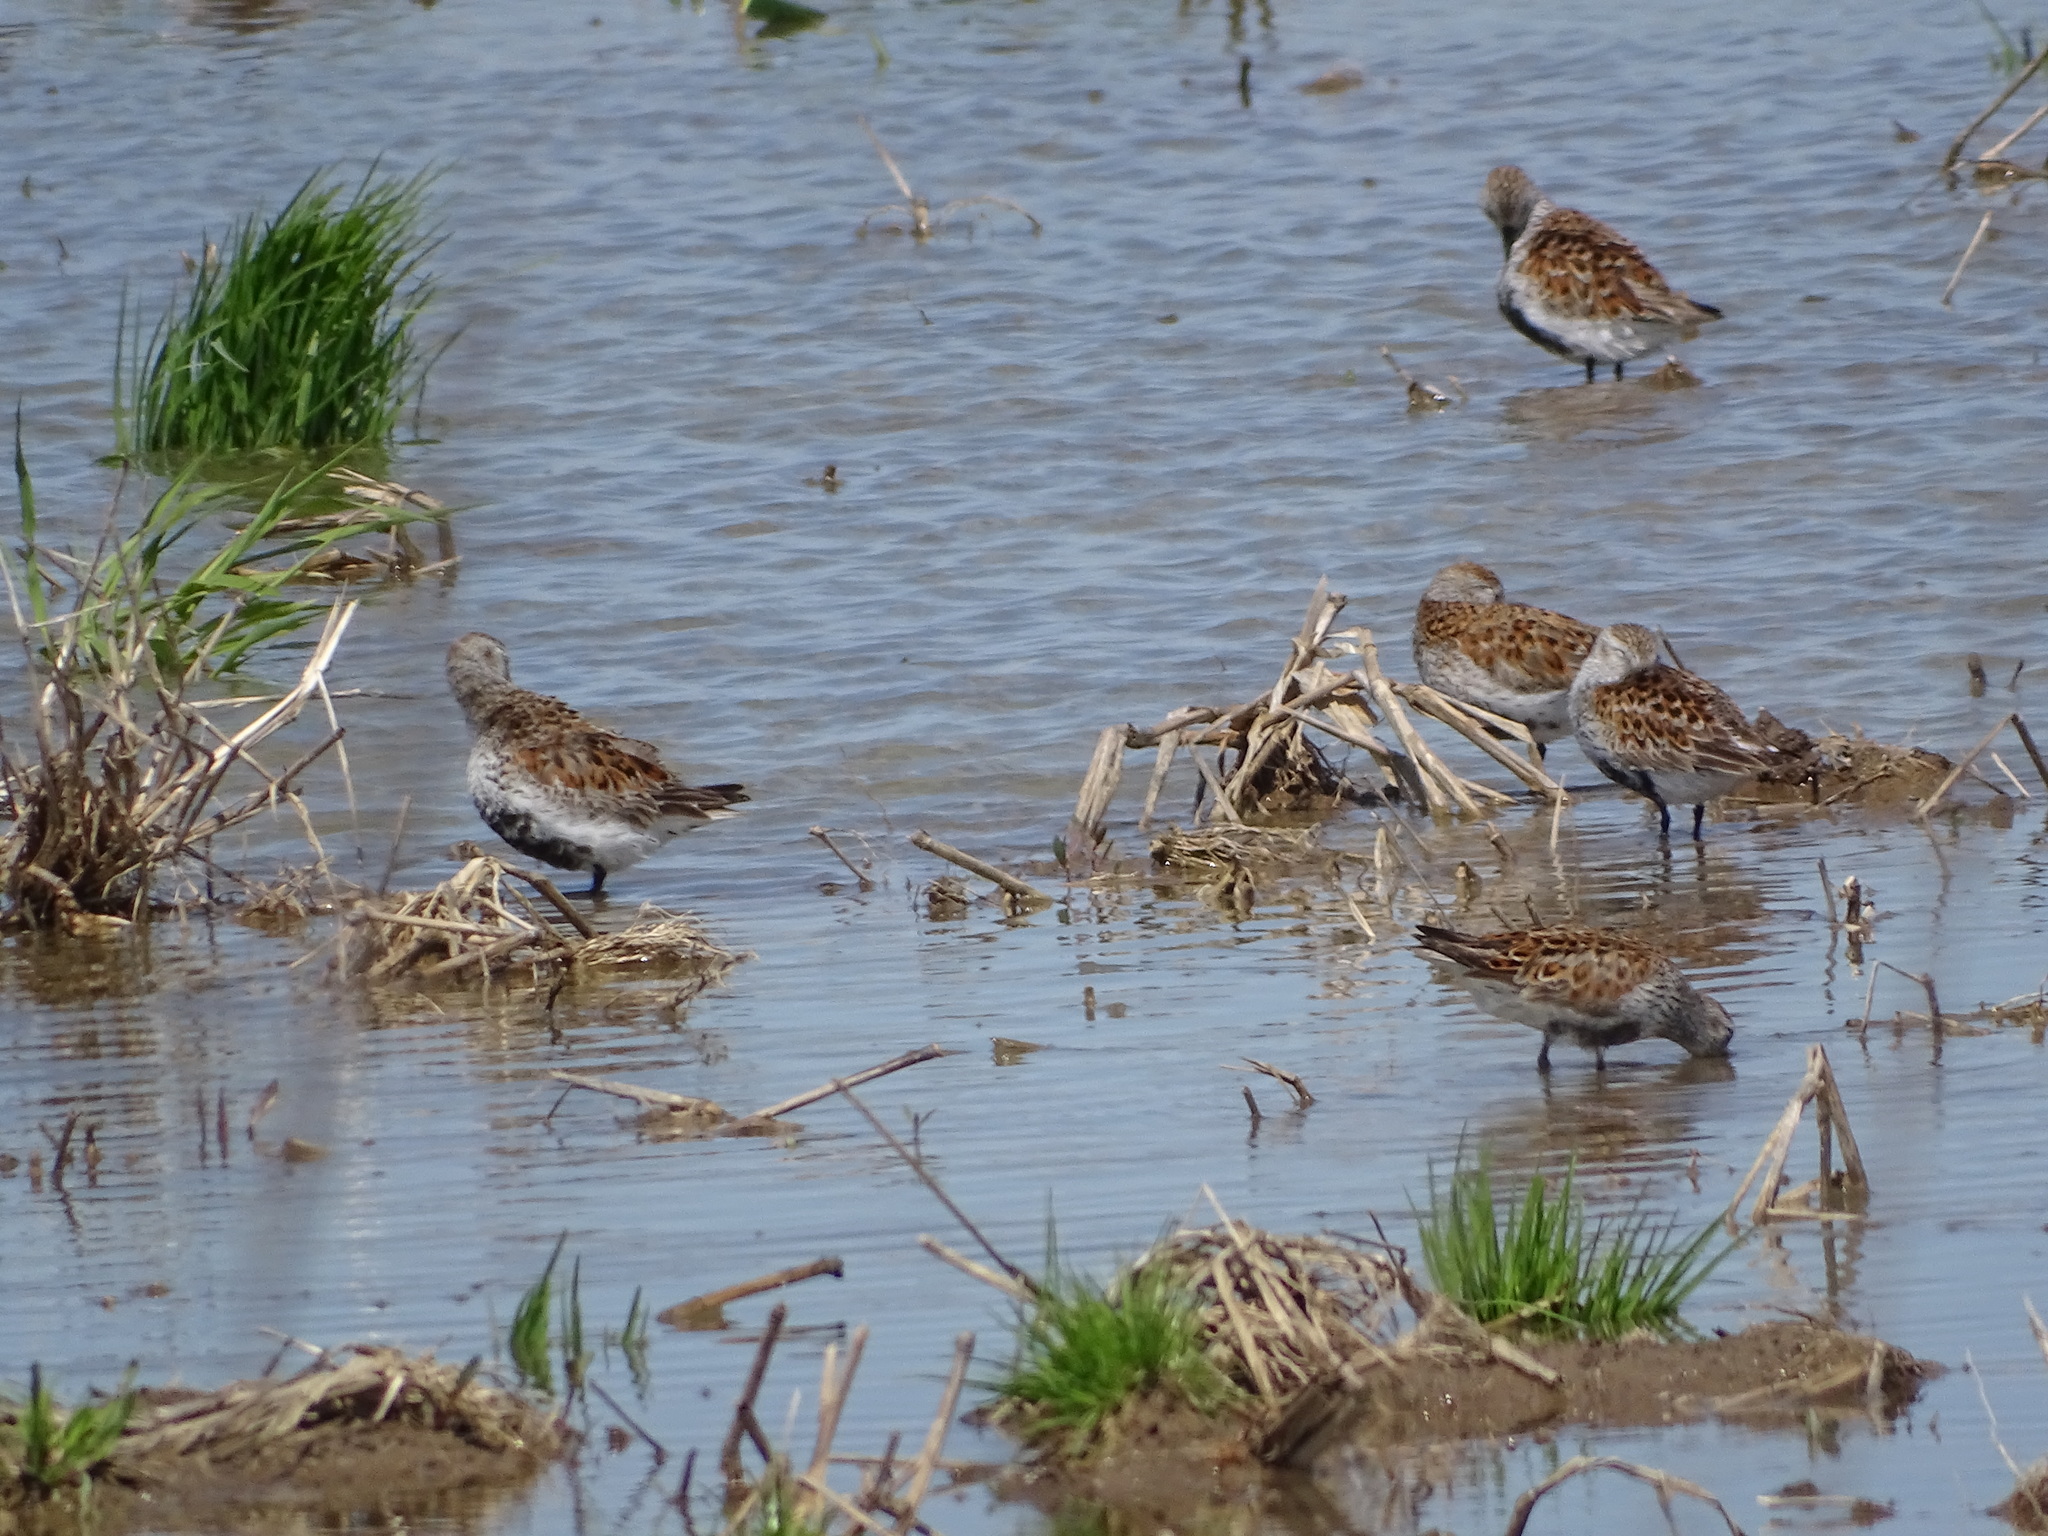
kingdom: Animalia
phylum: Chordata
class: Aves
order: Charadriiformes
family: Scolopacidae
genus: Calidris
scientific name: Calidris alpina
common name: Dunlin
